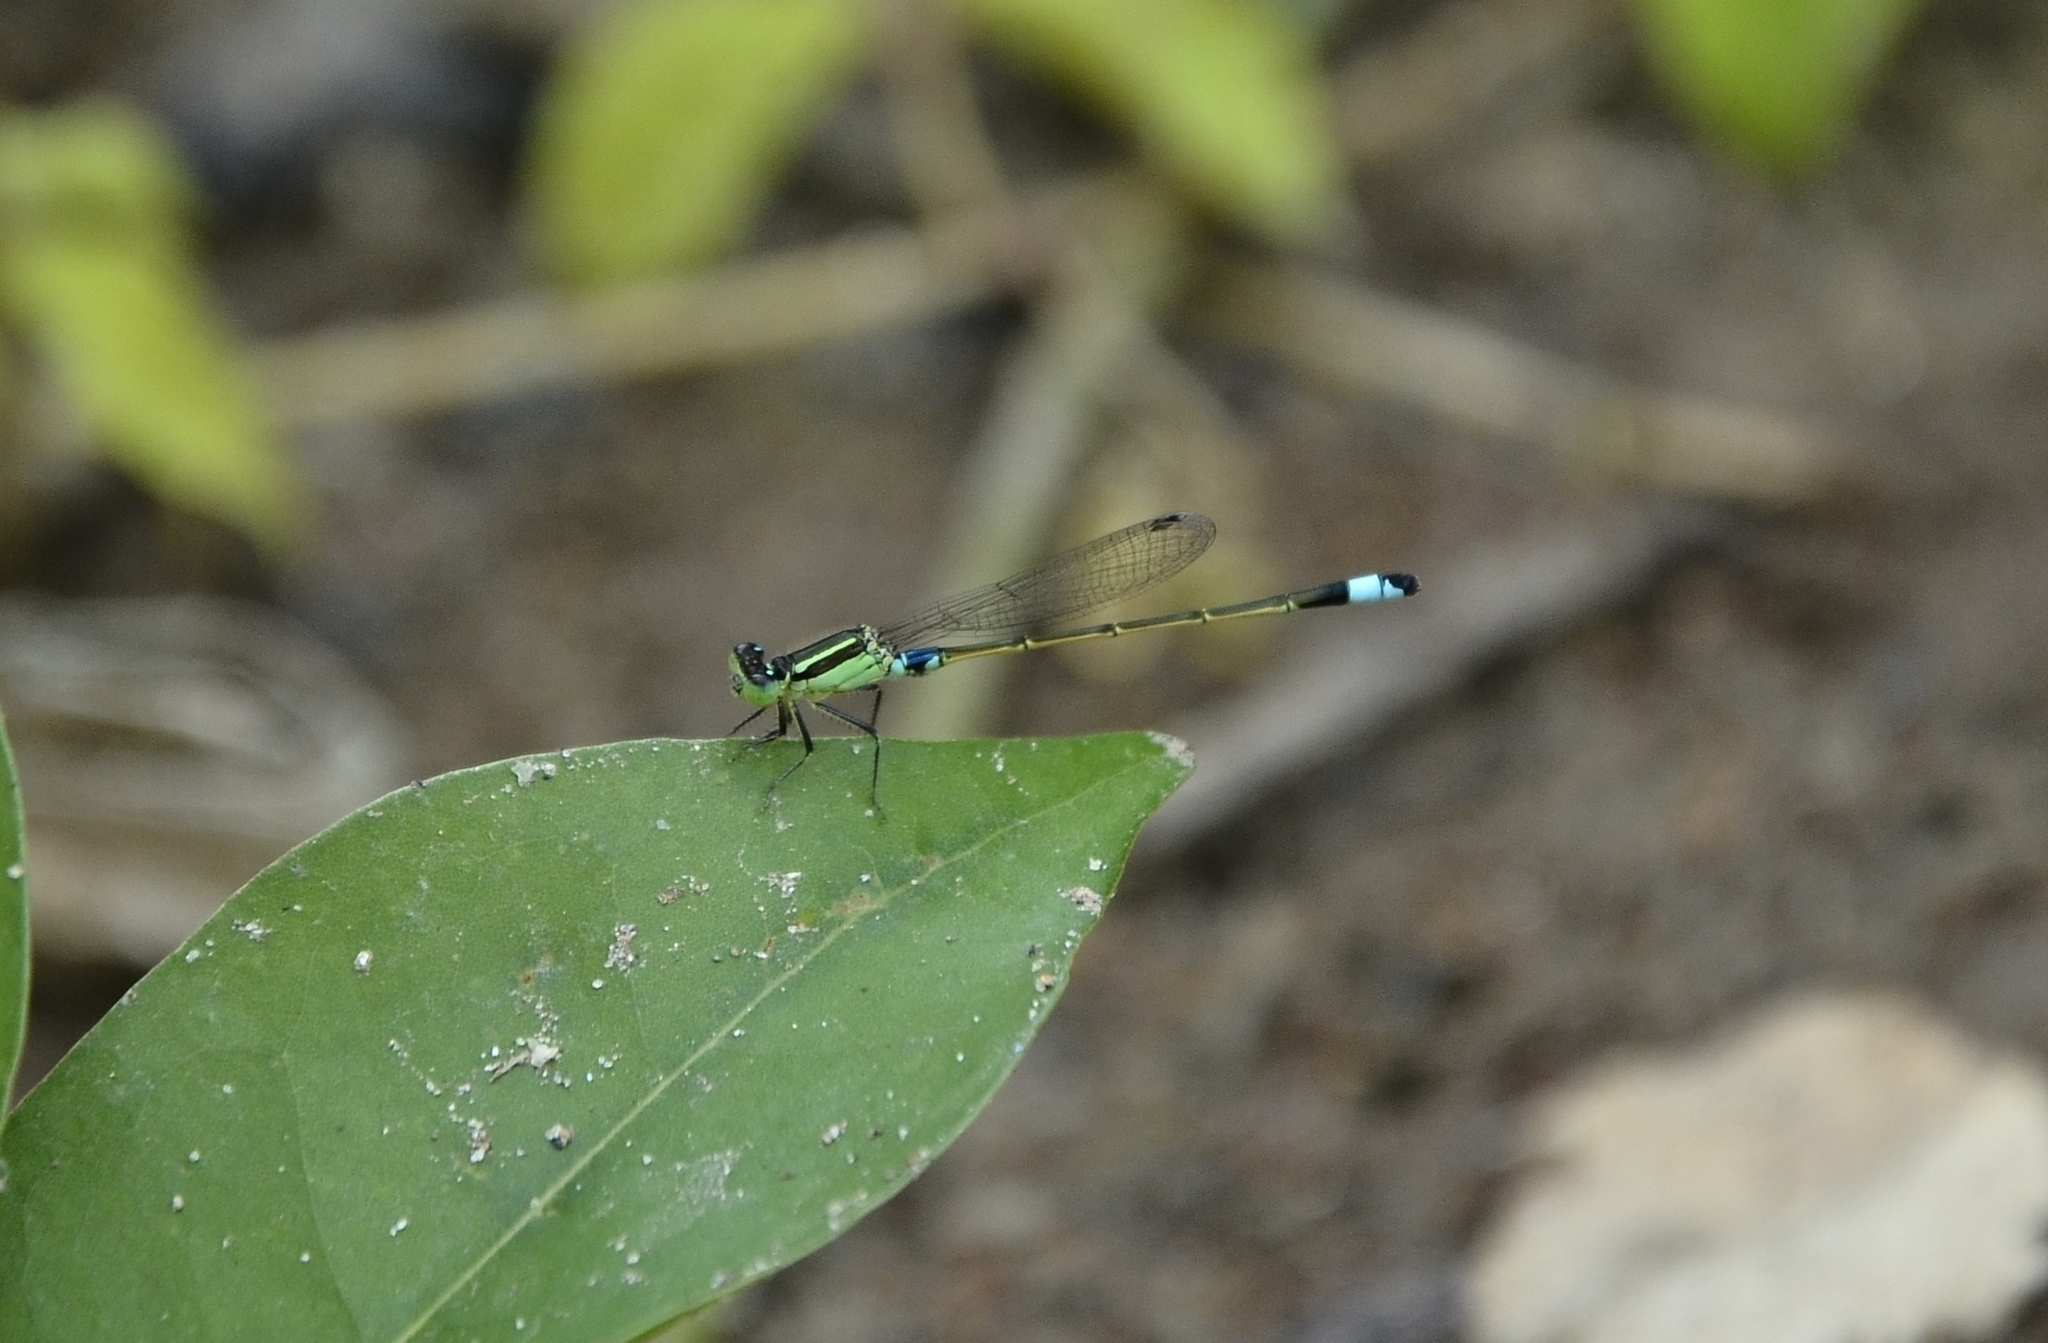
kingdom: Animalia
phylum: Arthropoda
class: Insecta
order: Odonata
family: Coenagrionidae
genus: Ischnura
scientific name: Ischnura senegalensis
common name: Tropical bluetail
